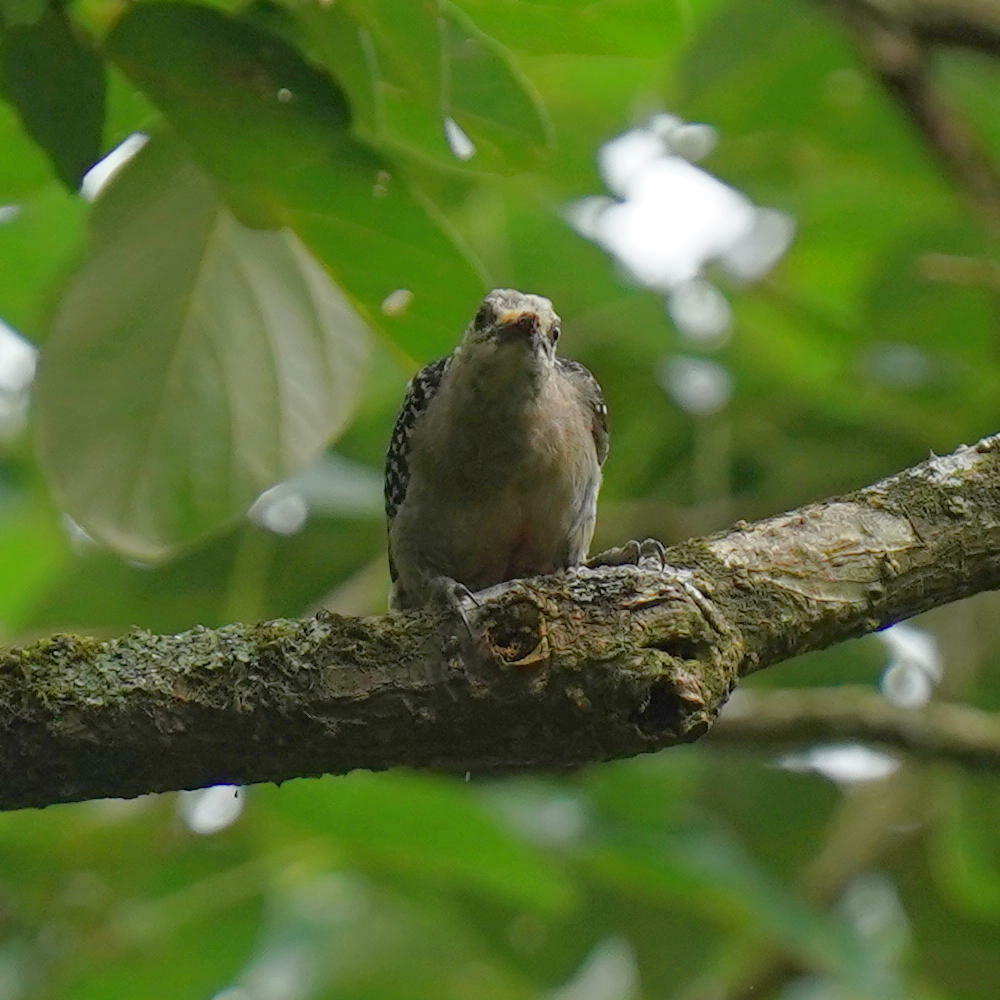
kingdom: Animalia
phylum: Chordata
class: Aves
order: Piciformes
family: Picidae
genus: Melanerpes
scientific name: Melanerpes rubricapillus
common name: Red-crowned woodpecker
